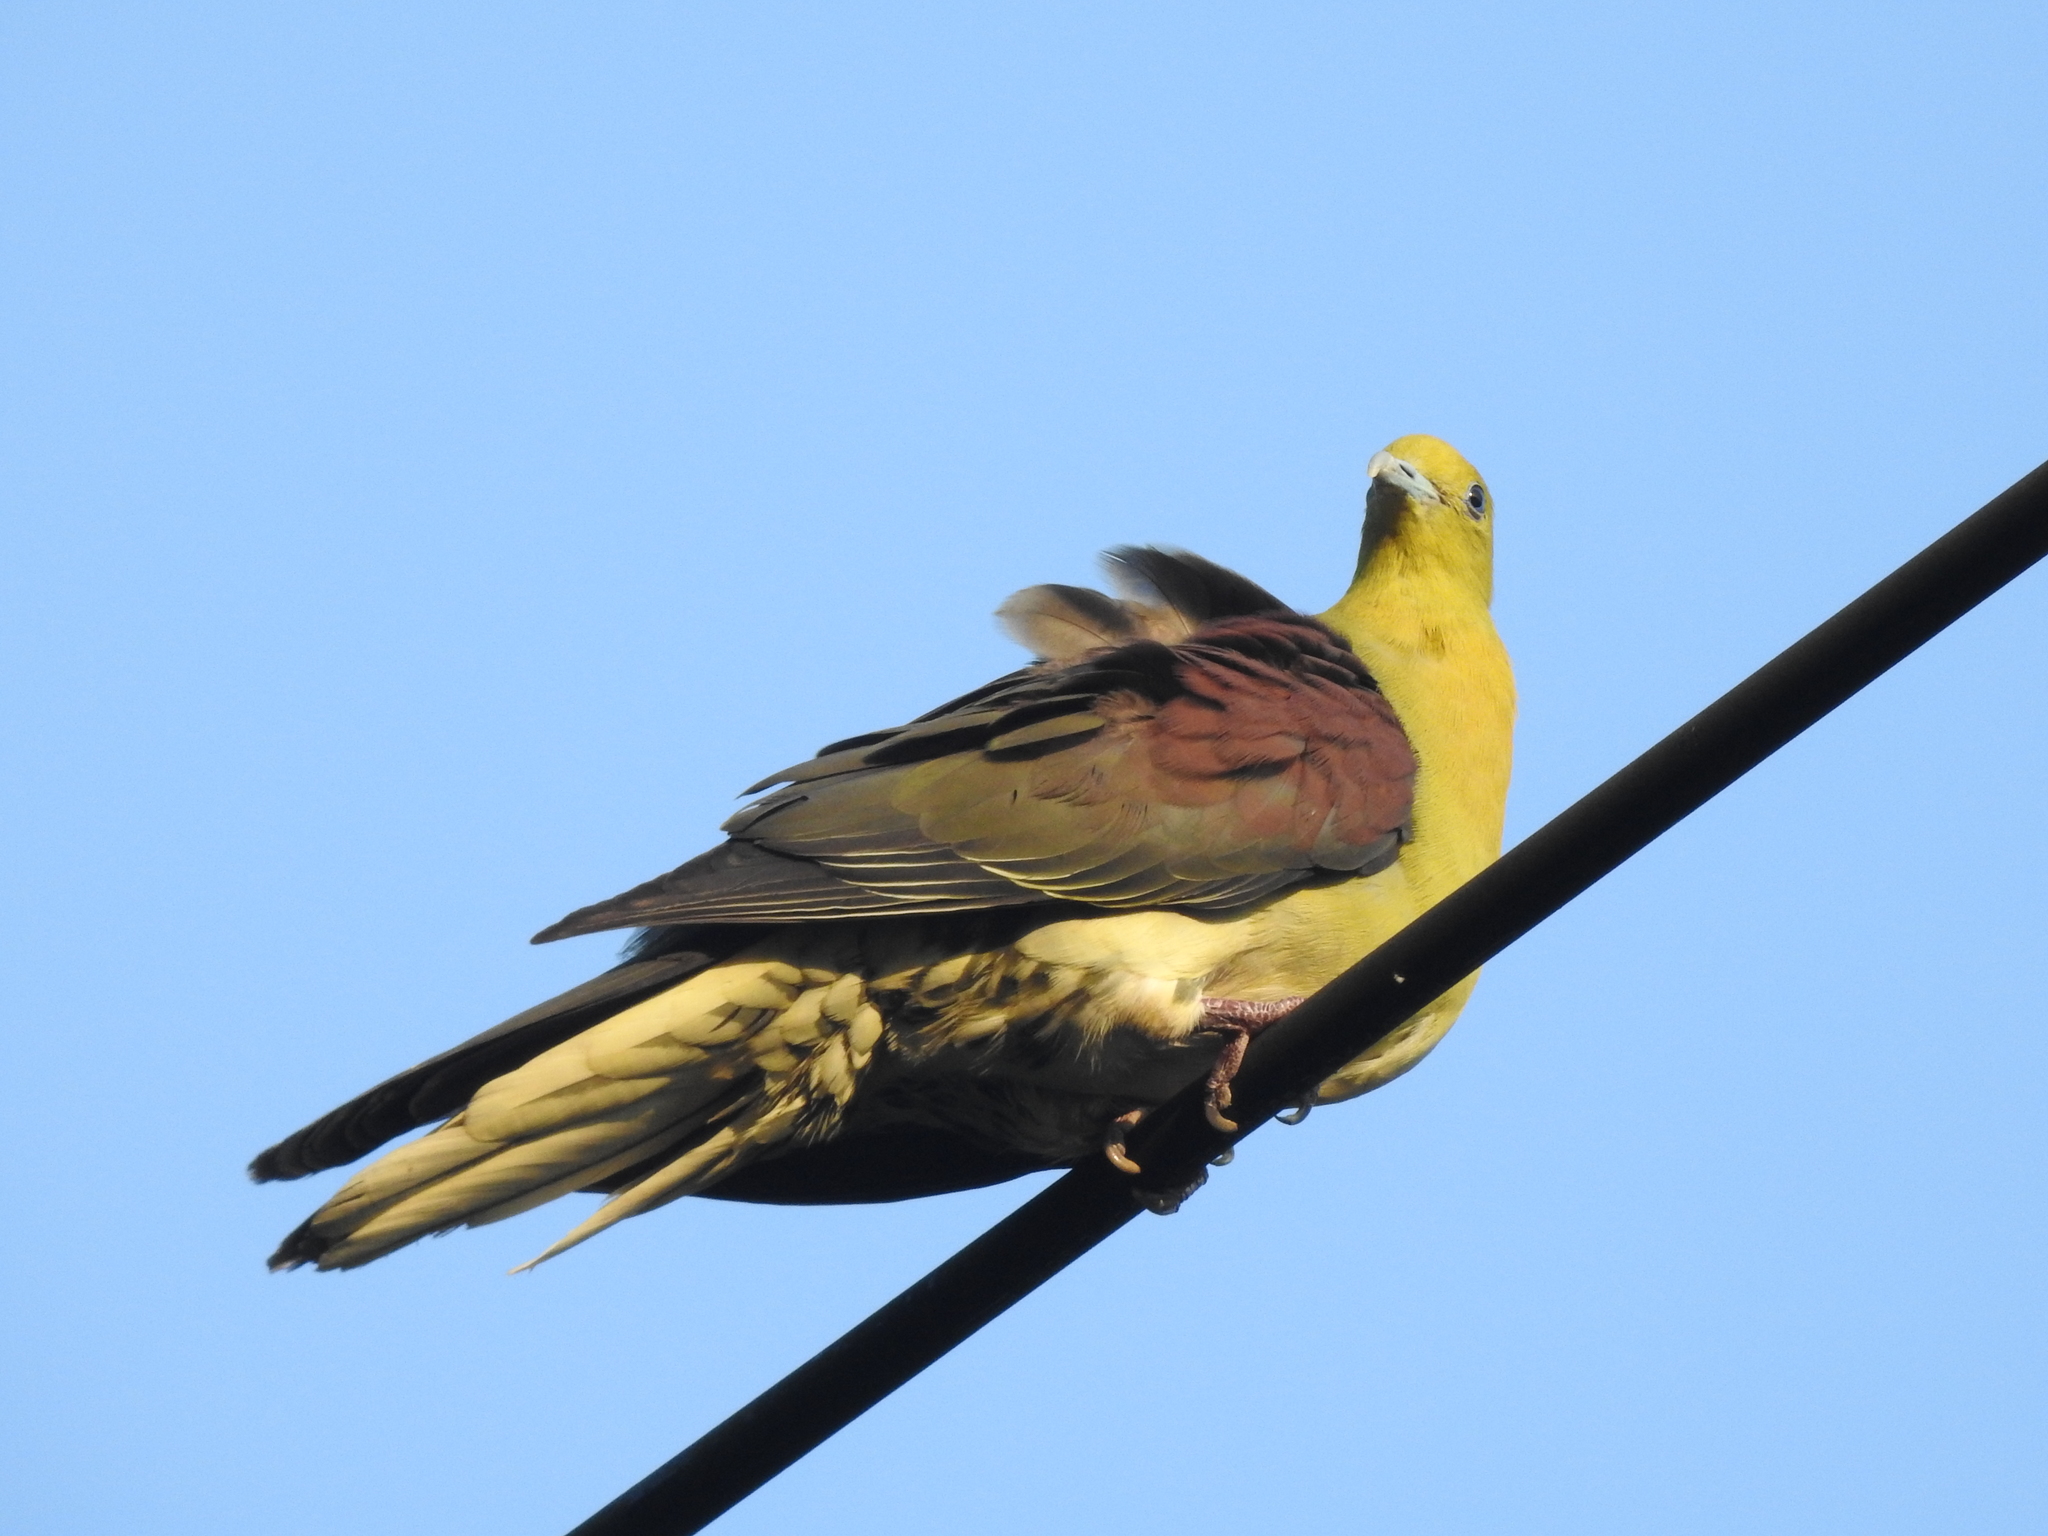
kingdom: Animalia
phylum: Chordata
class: Aves
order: Columbiformes
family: Columbidae
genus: Treron
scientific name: Treron sieboldii
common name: White-bellied green pigeon
